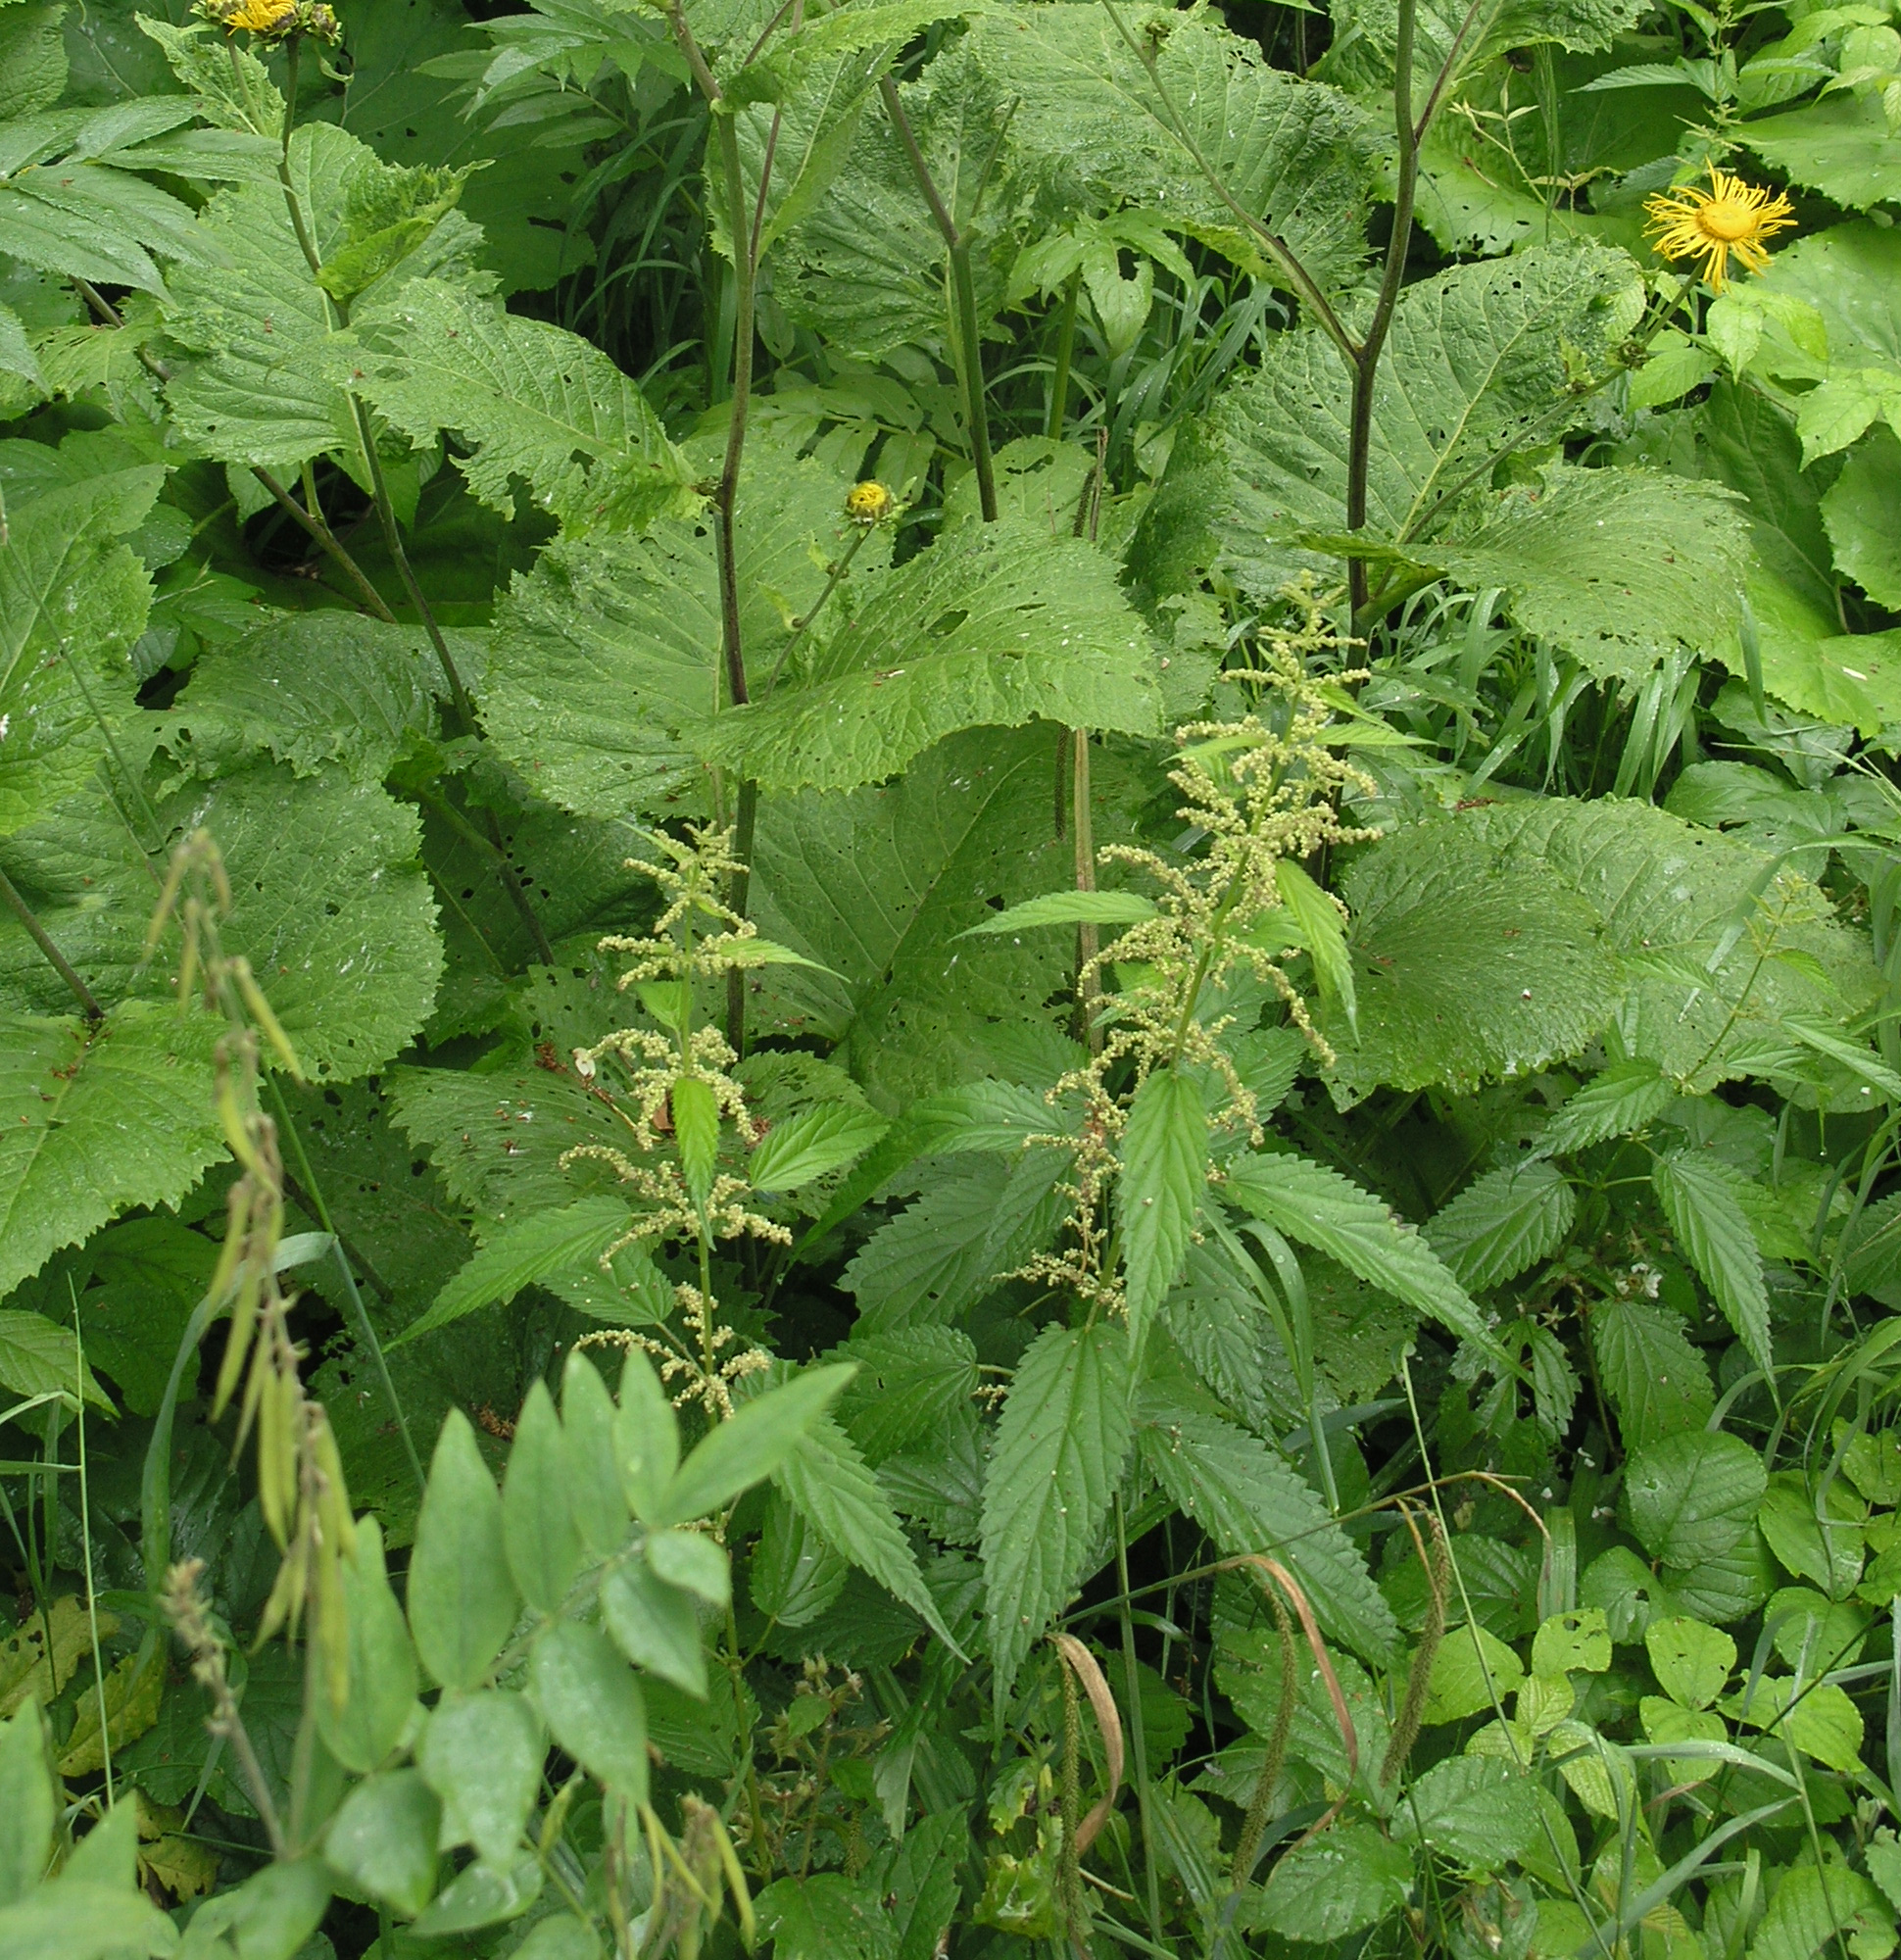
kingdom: Plantae
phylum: Tracheophyta
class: Magnoliopsida
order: Rosales
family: Urticaceae
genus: Urtica
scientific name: Urtica dioica
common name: Common nettle
